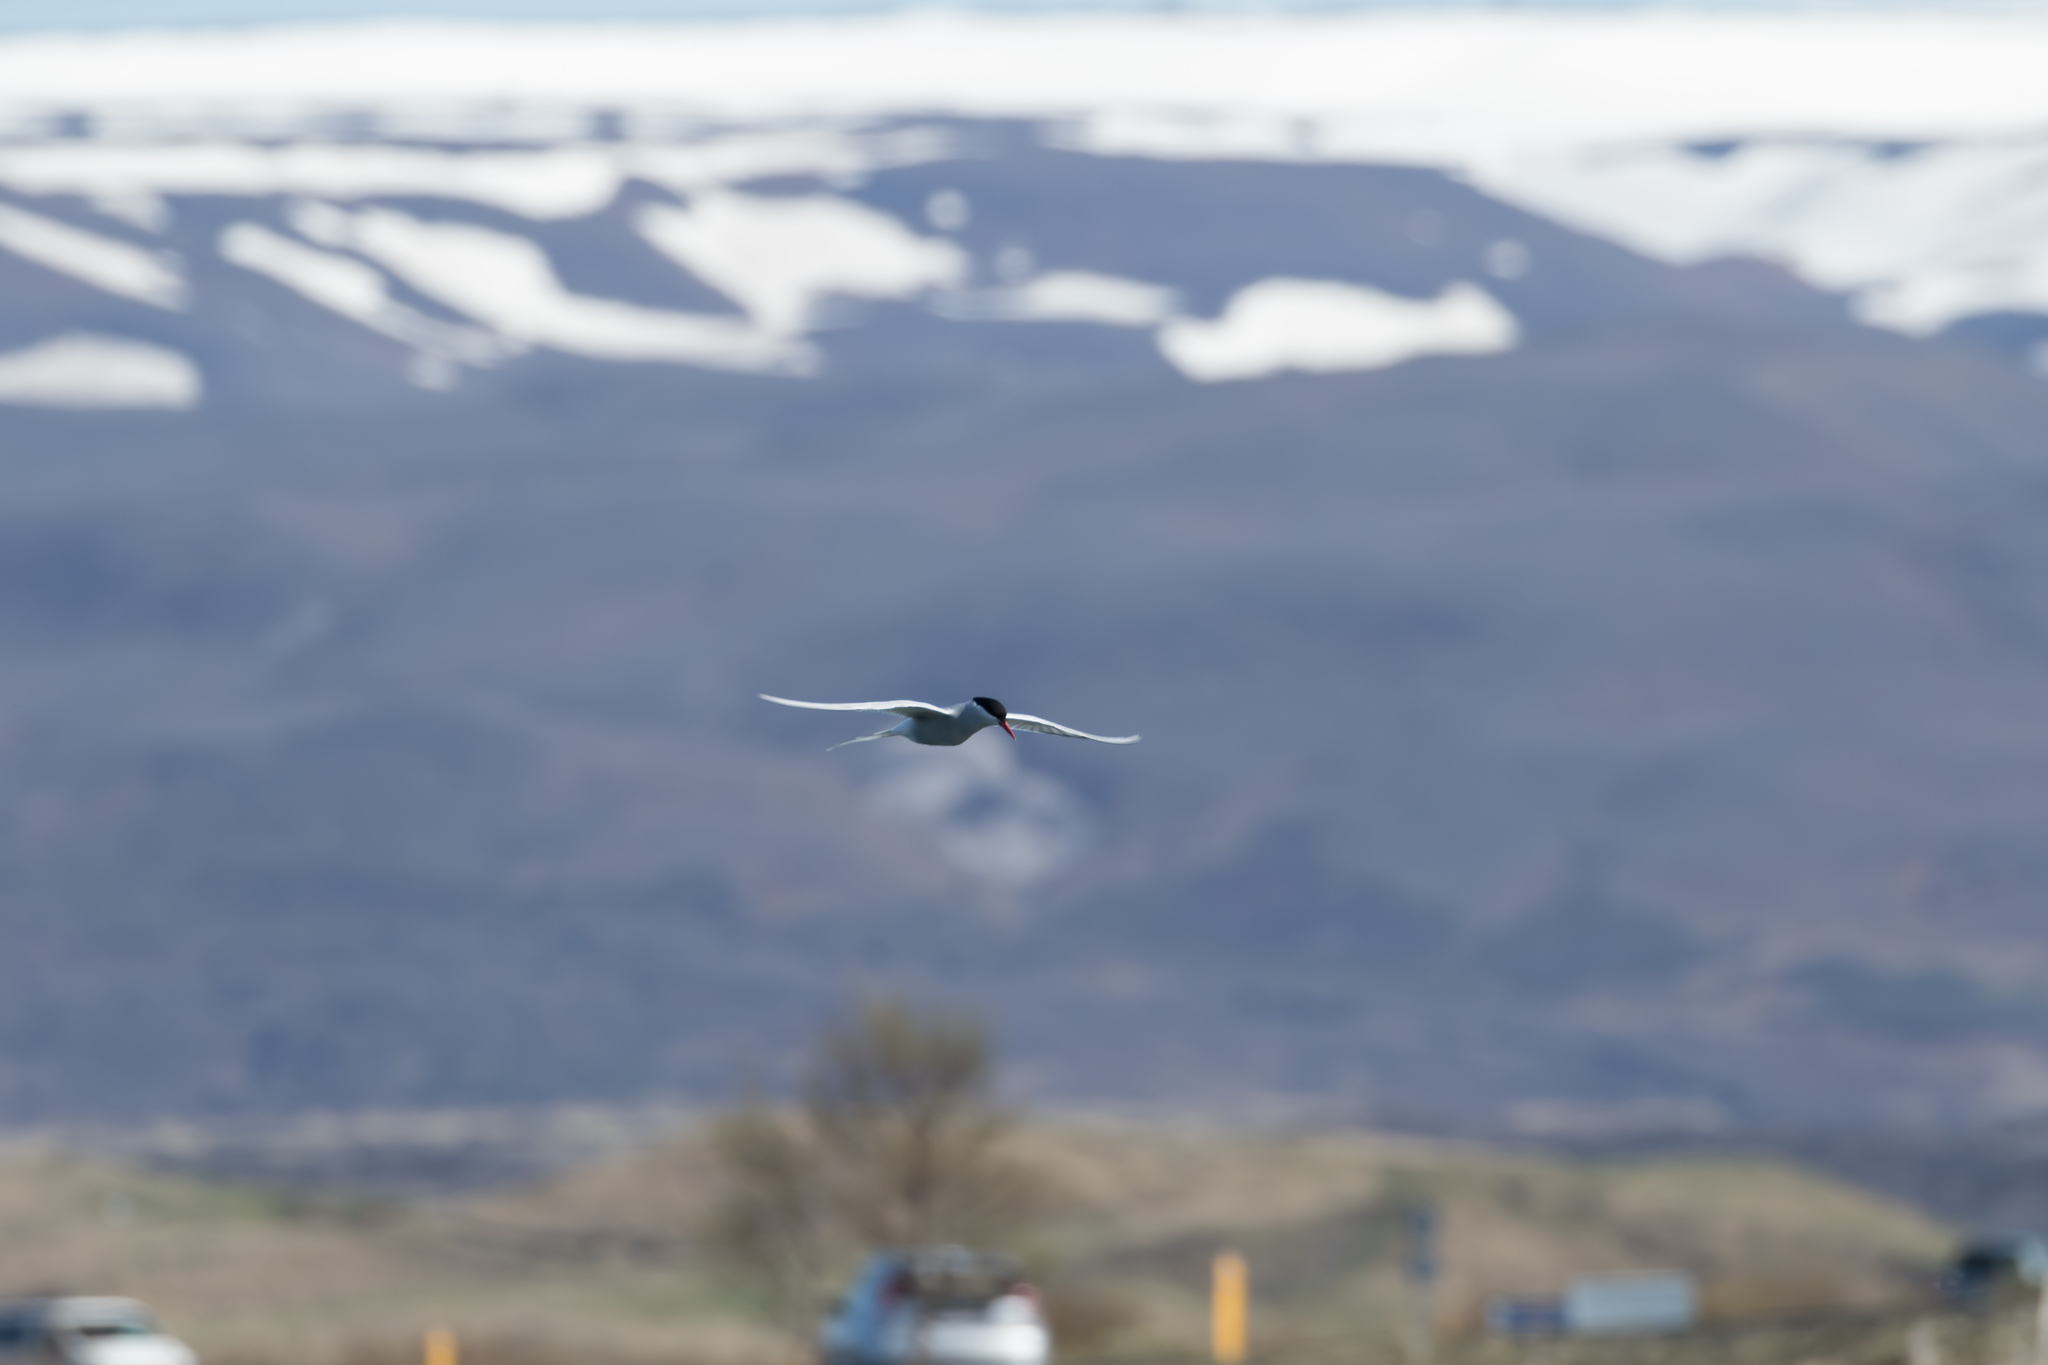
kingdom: Animalia
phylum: Chordata
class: Aves
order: Charadriiformes
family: Laridae
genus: Sterna
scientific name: Sterna paradisaea
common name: Arctic tern
